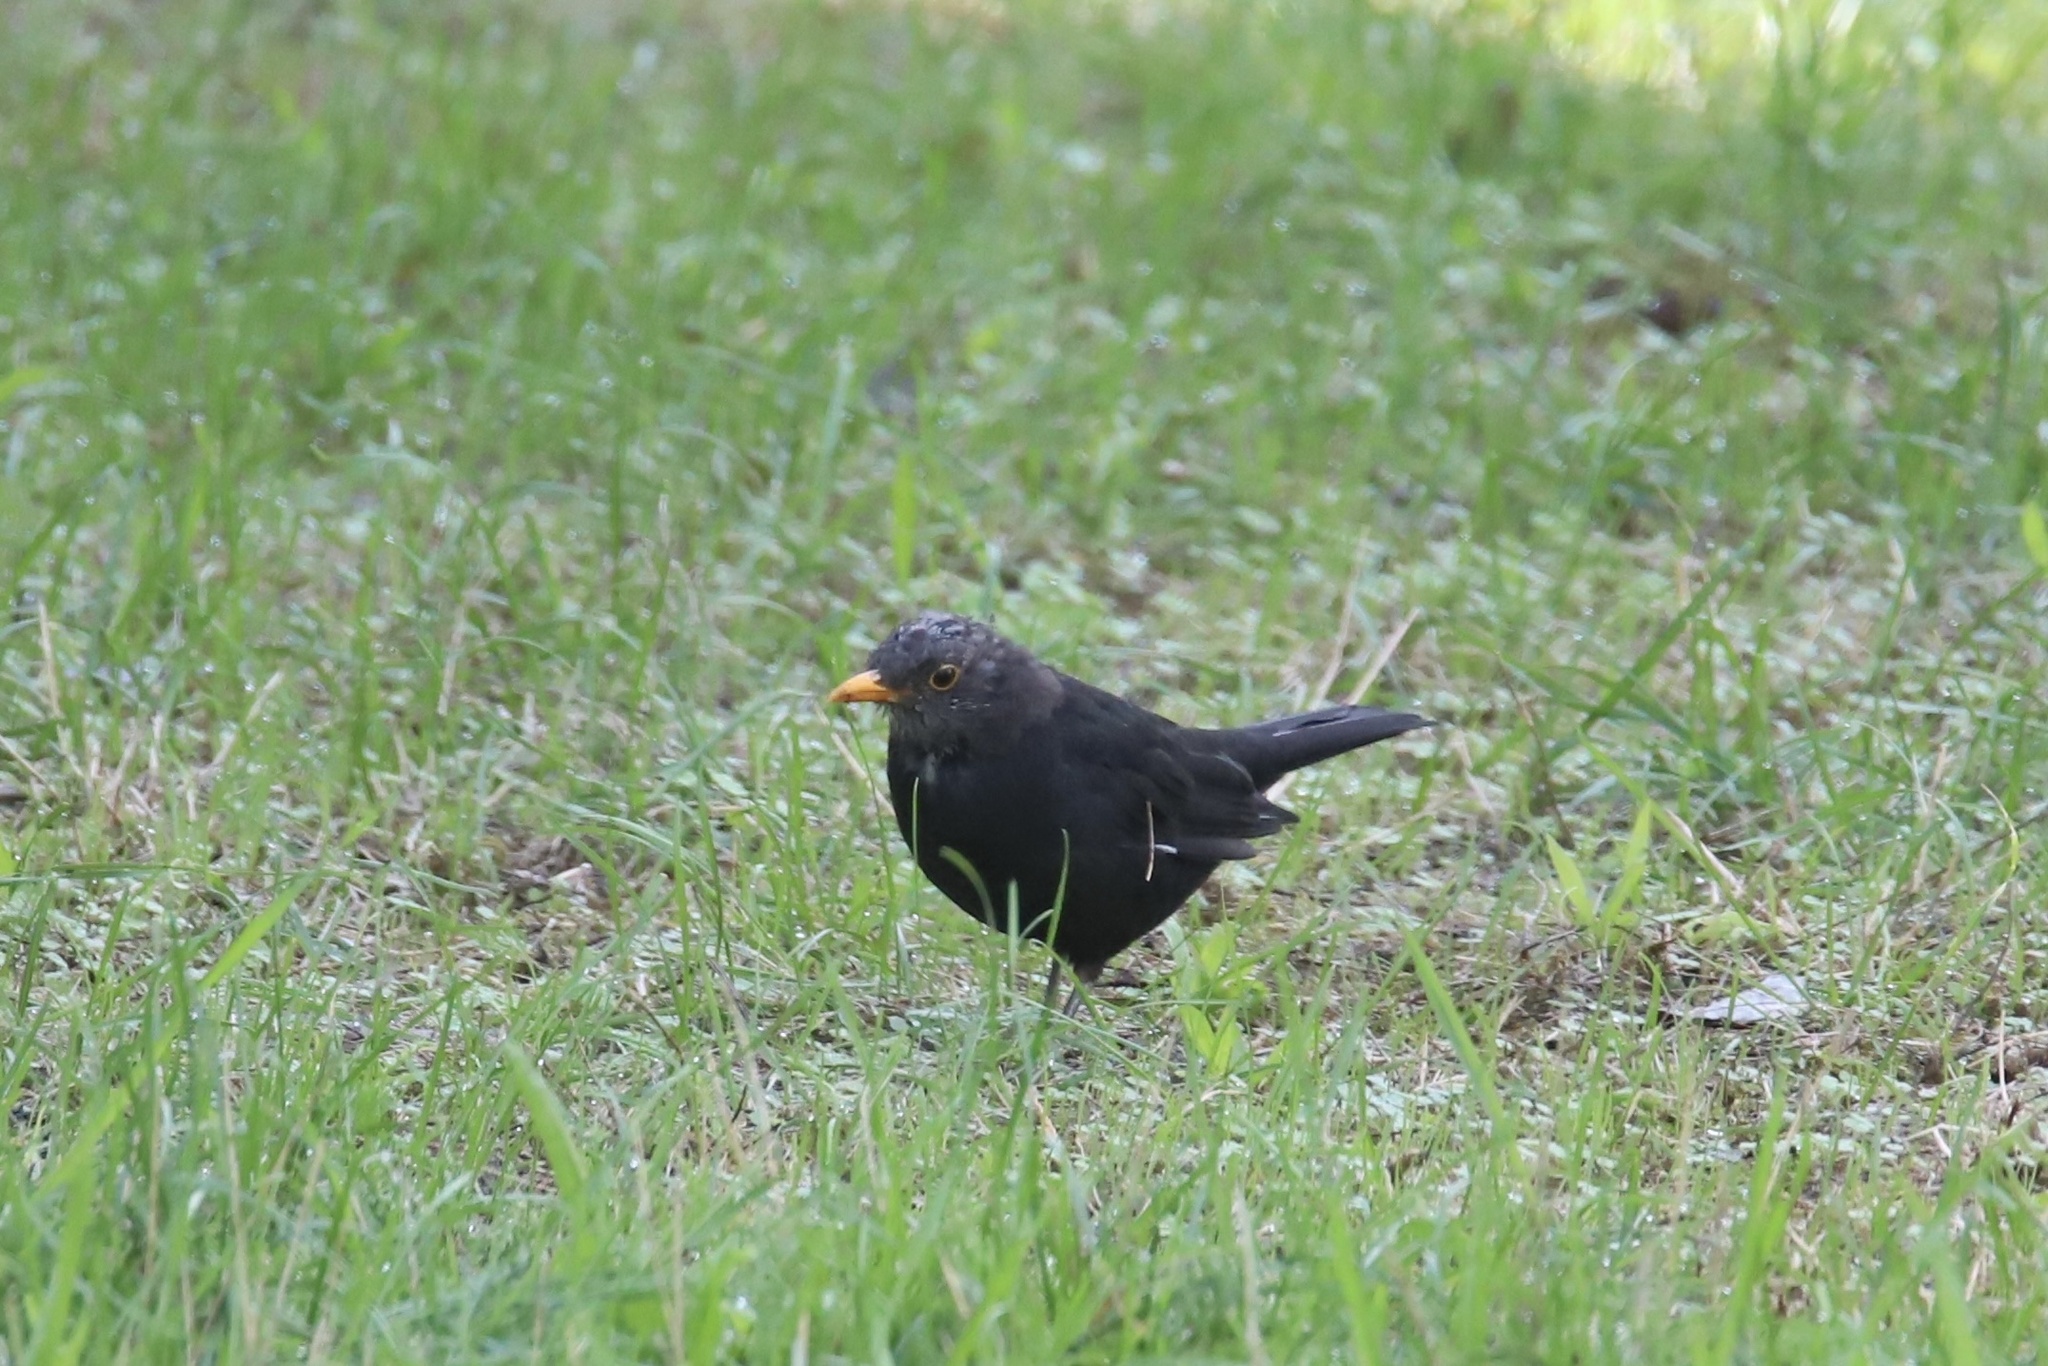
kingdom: Animalia
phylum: Chordata
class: Aves
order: Passeriformes
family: Turdidae
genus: Turdus
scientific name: Turdus merula
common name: Common blackbird
